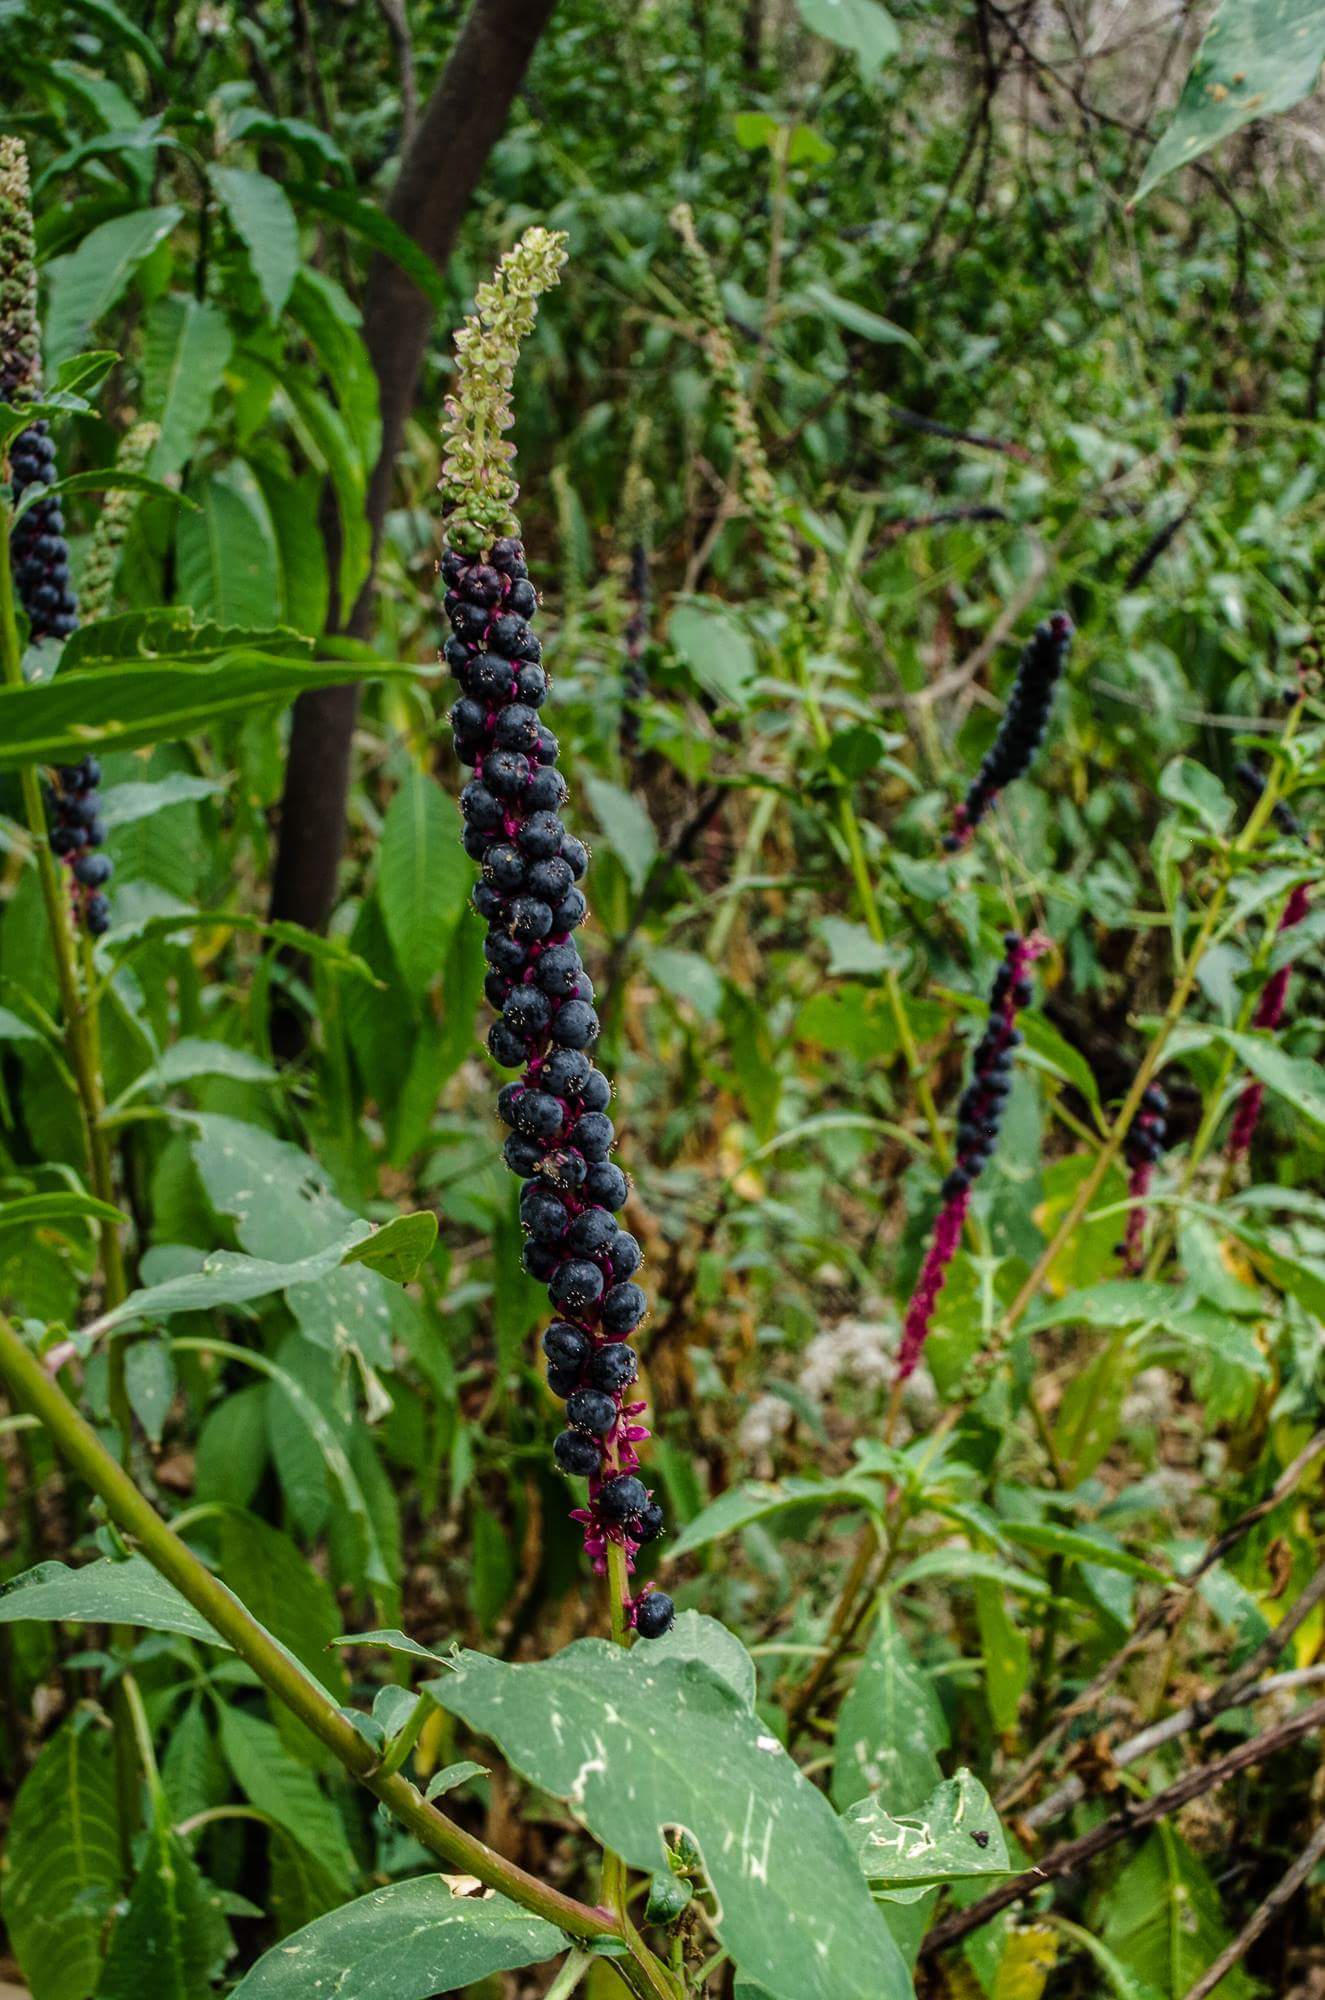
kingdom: Plantae
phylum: Tracheophyta
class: Magnoliopsida
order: Caryophyllales
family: Phytolaccaceae
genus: Phytolacca
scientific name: Phytolacca icosandra
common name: Button pokeweed
